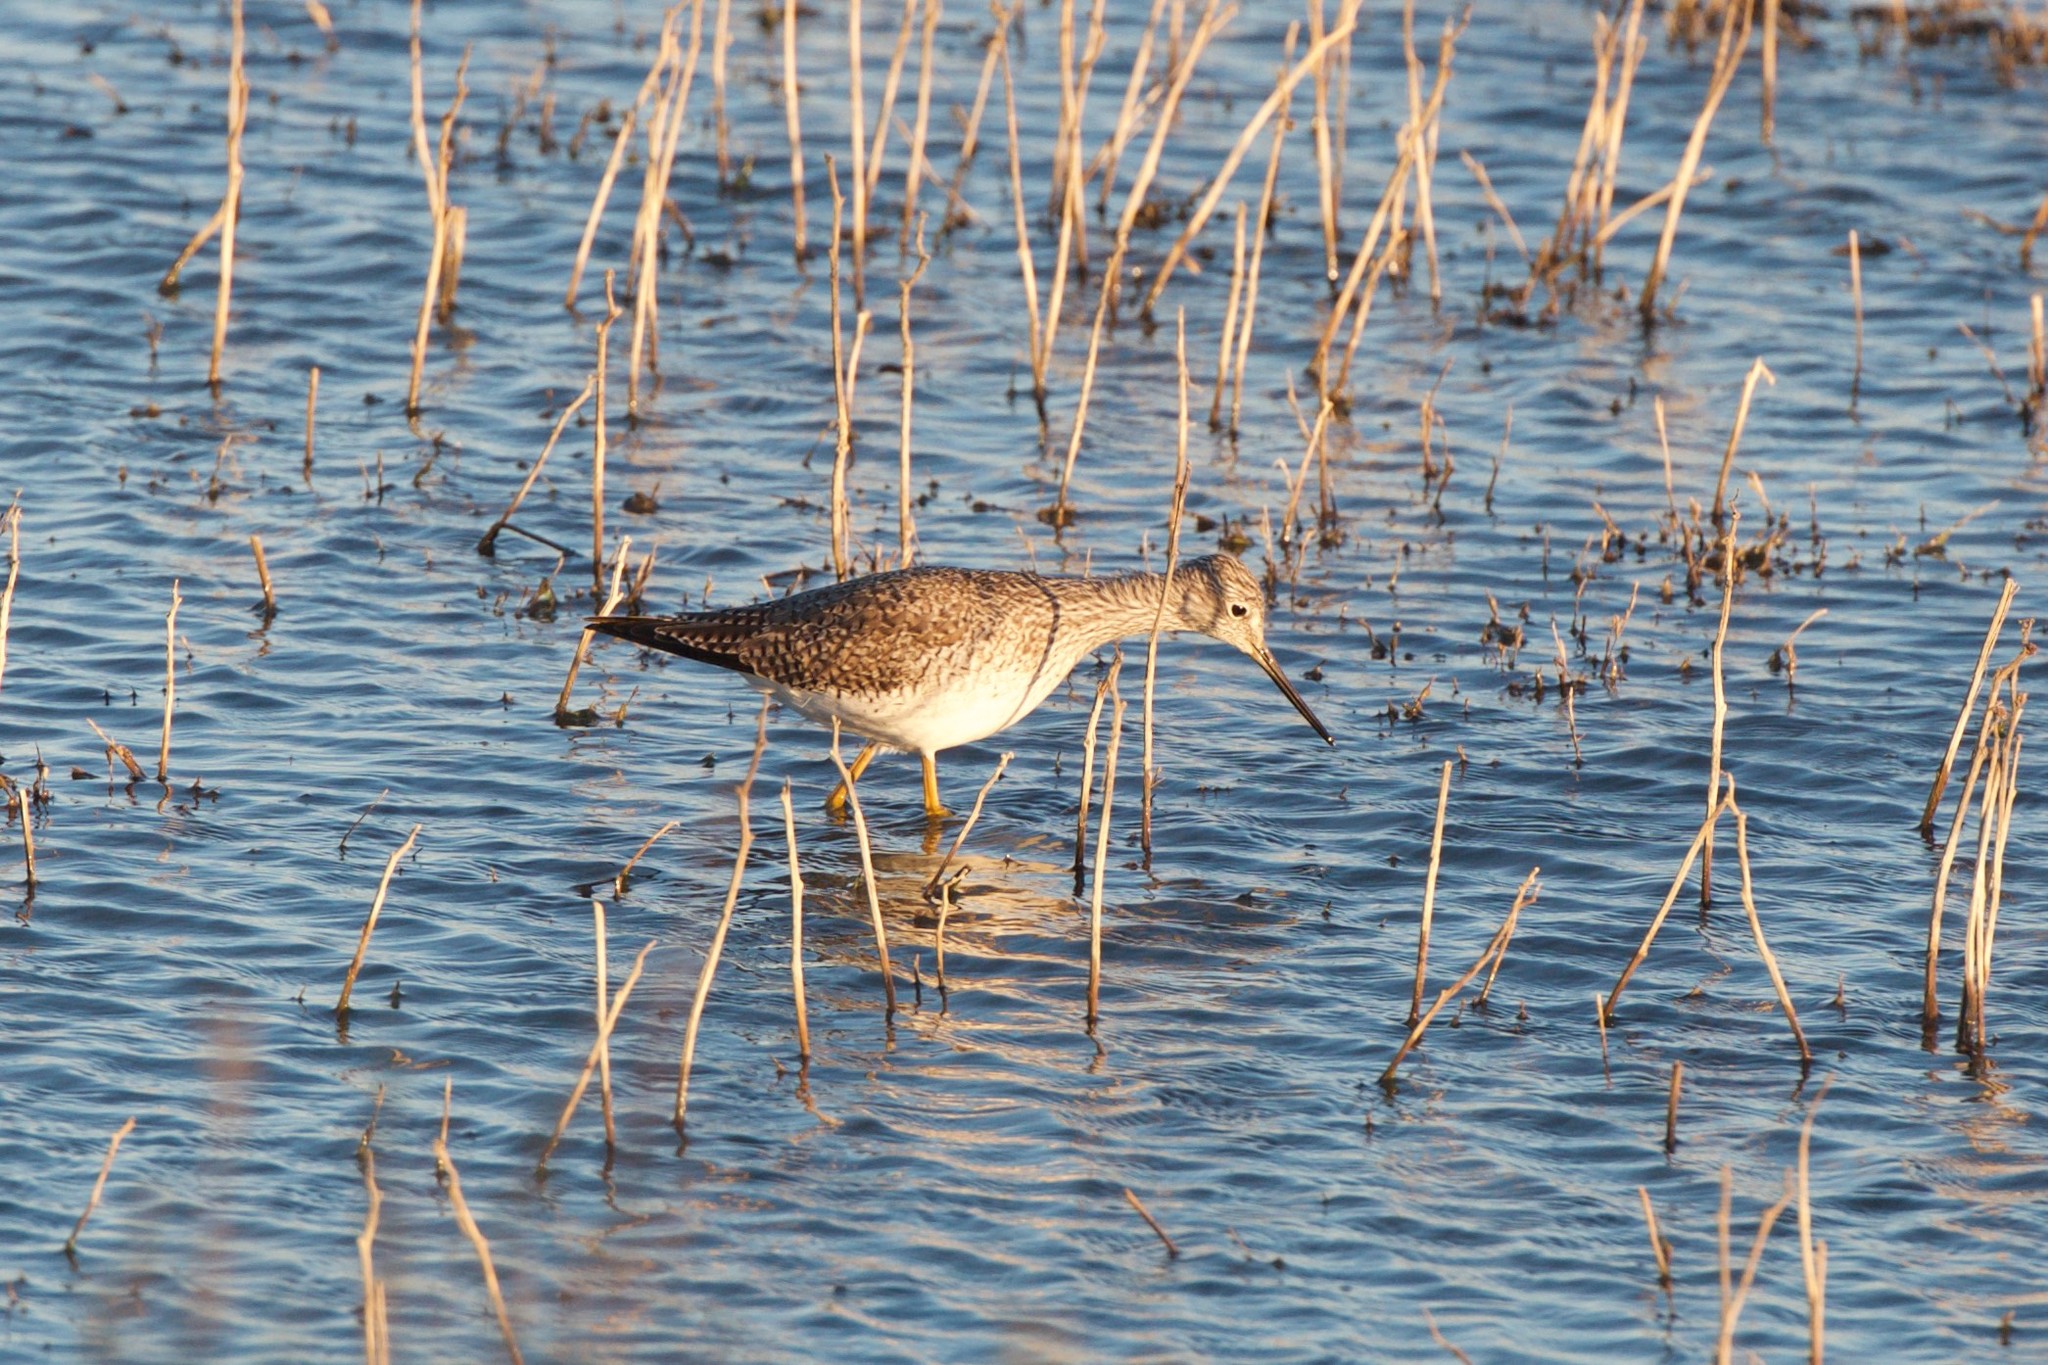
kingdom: Animalia
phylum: Chordata
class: Aves
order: Charadriiformes
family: Scolopacidae
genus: Tringa
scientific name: Tringa melanoleuca
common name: Greater yellowlegs
